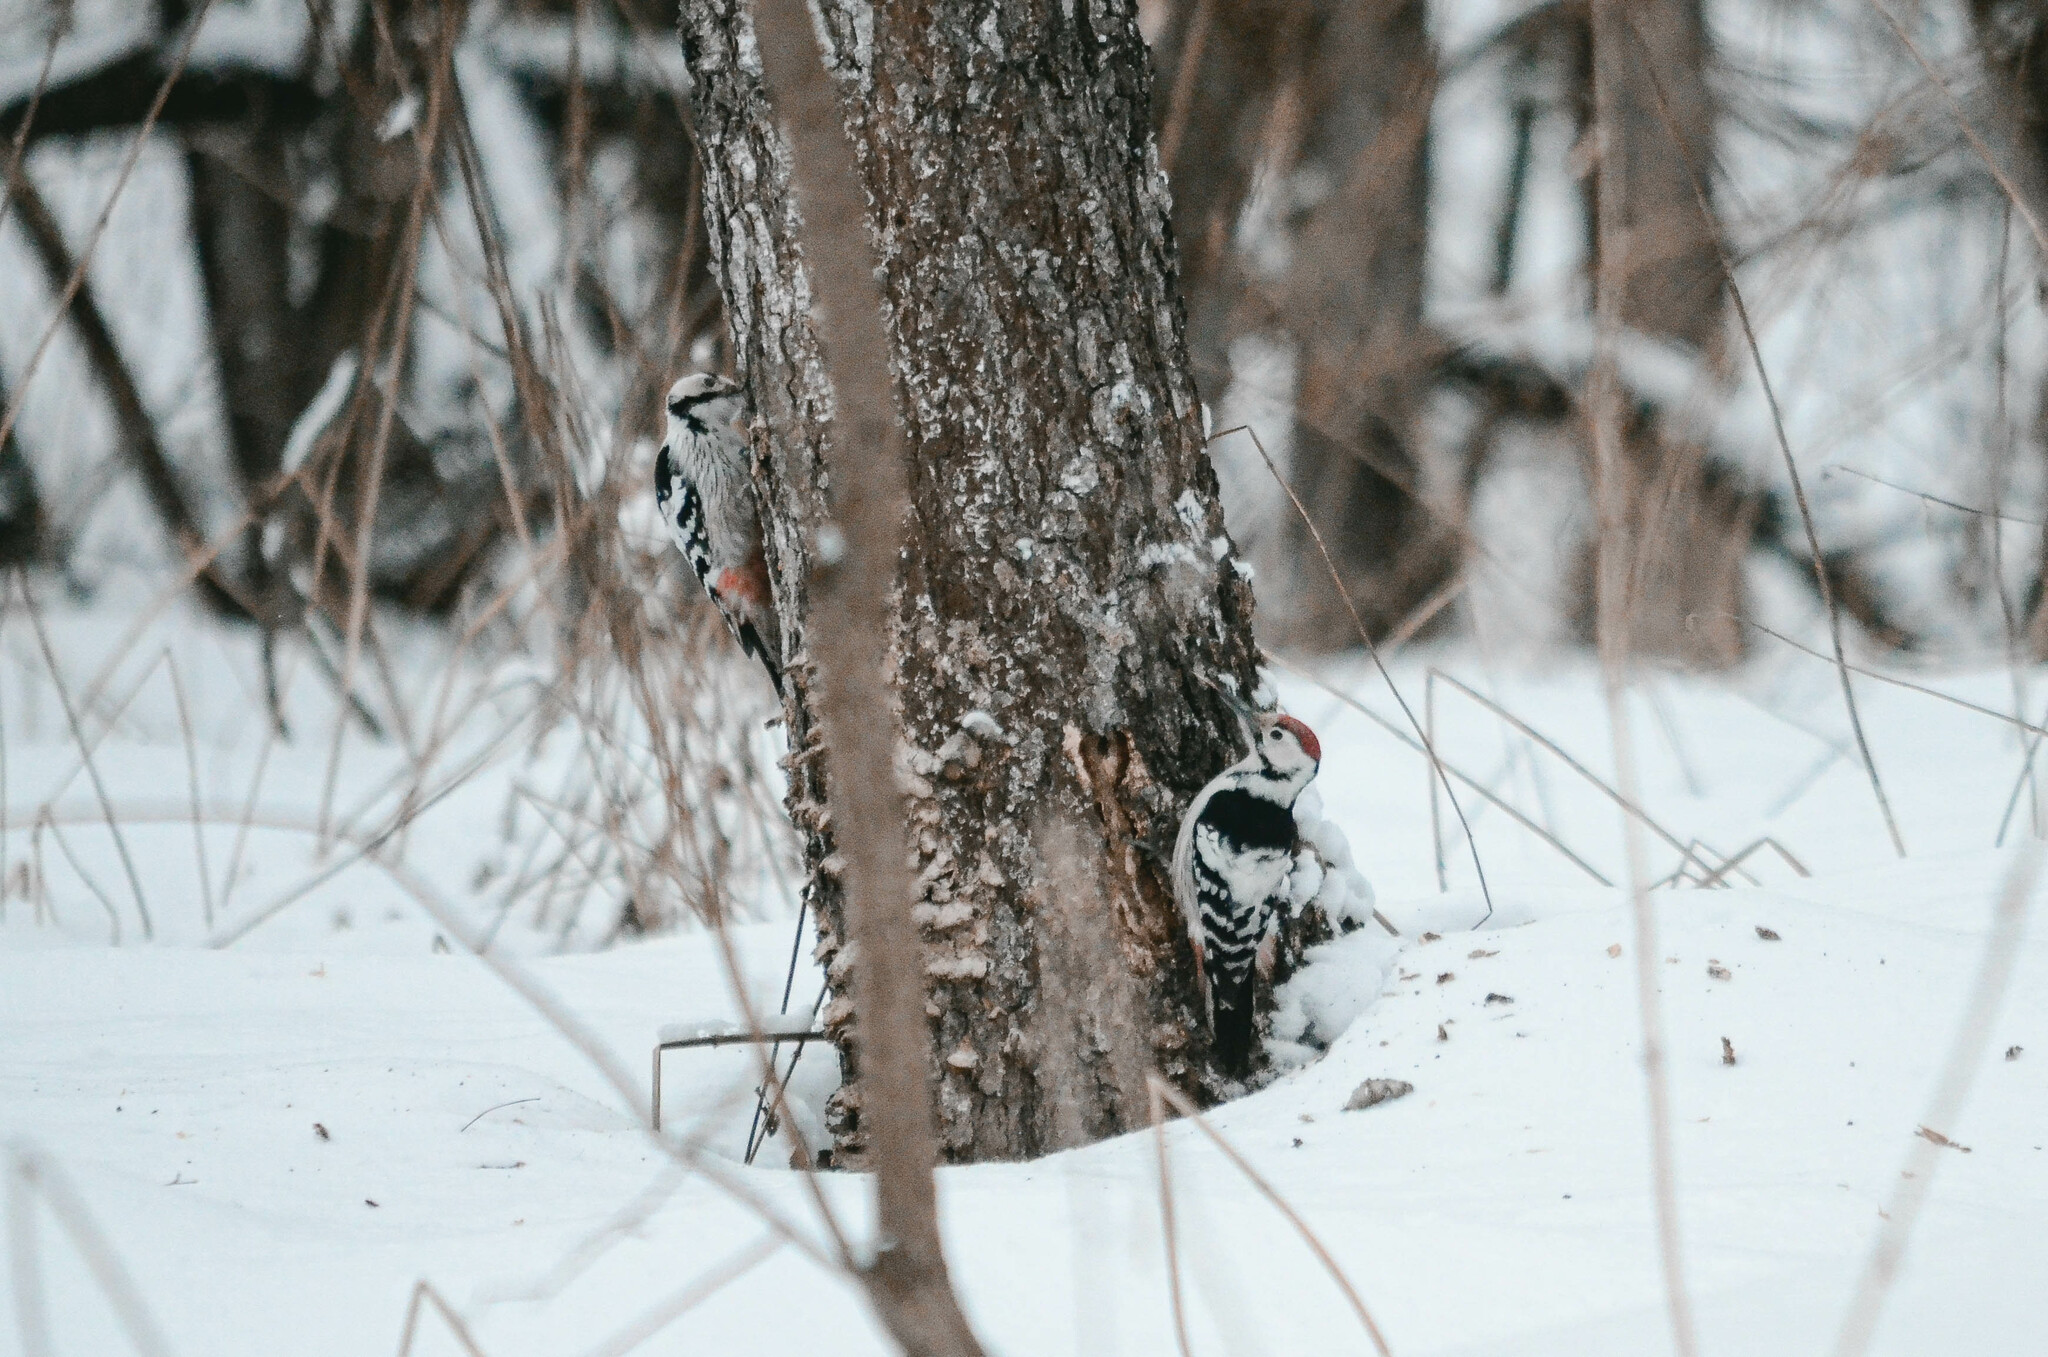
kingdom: Animalia
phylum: Chordata
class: Aves
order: Piciformes
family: Picidae
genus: Dendrocopos
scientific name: Dendrocopos leucotos
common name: White-backed woodpecker
